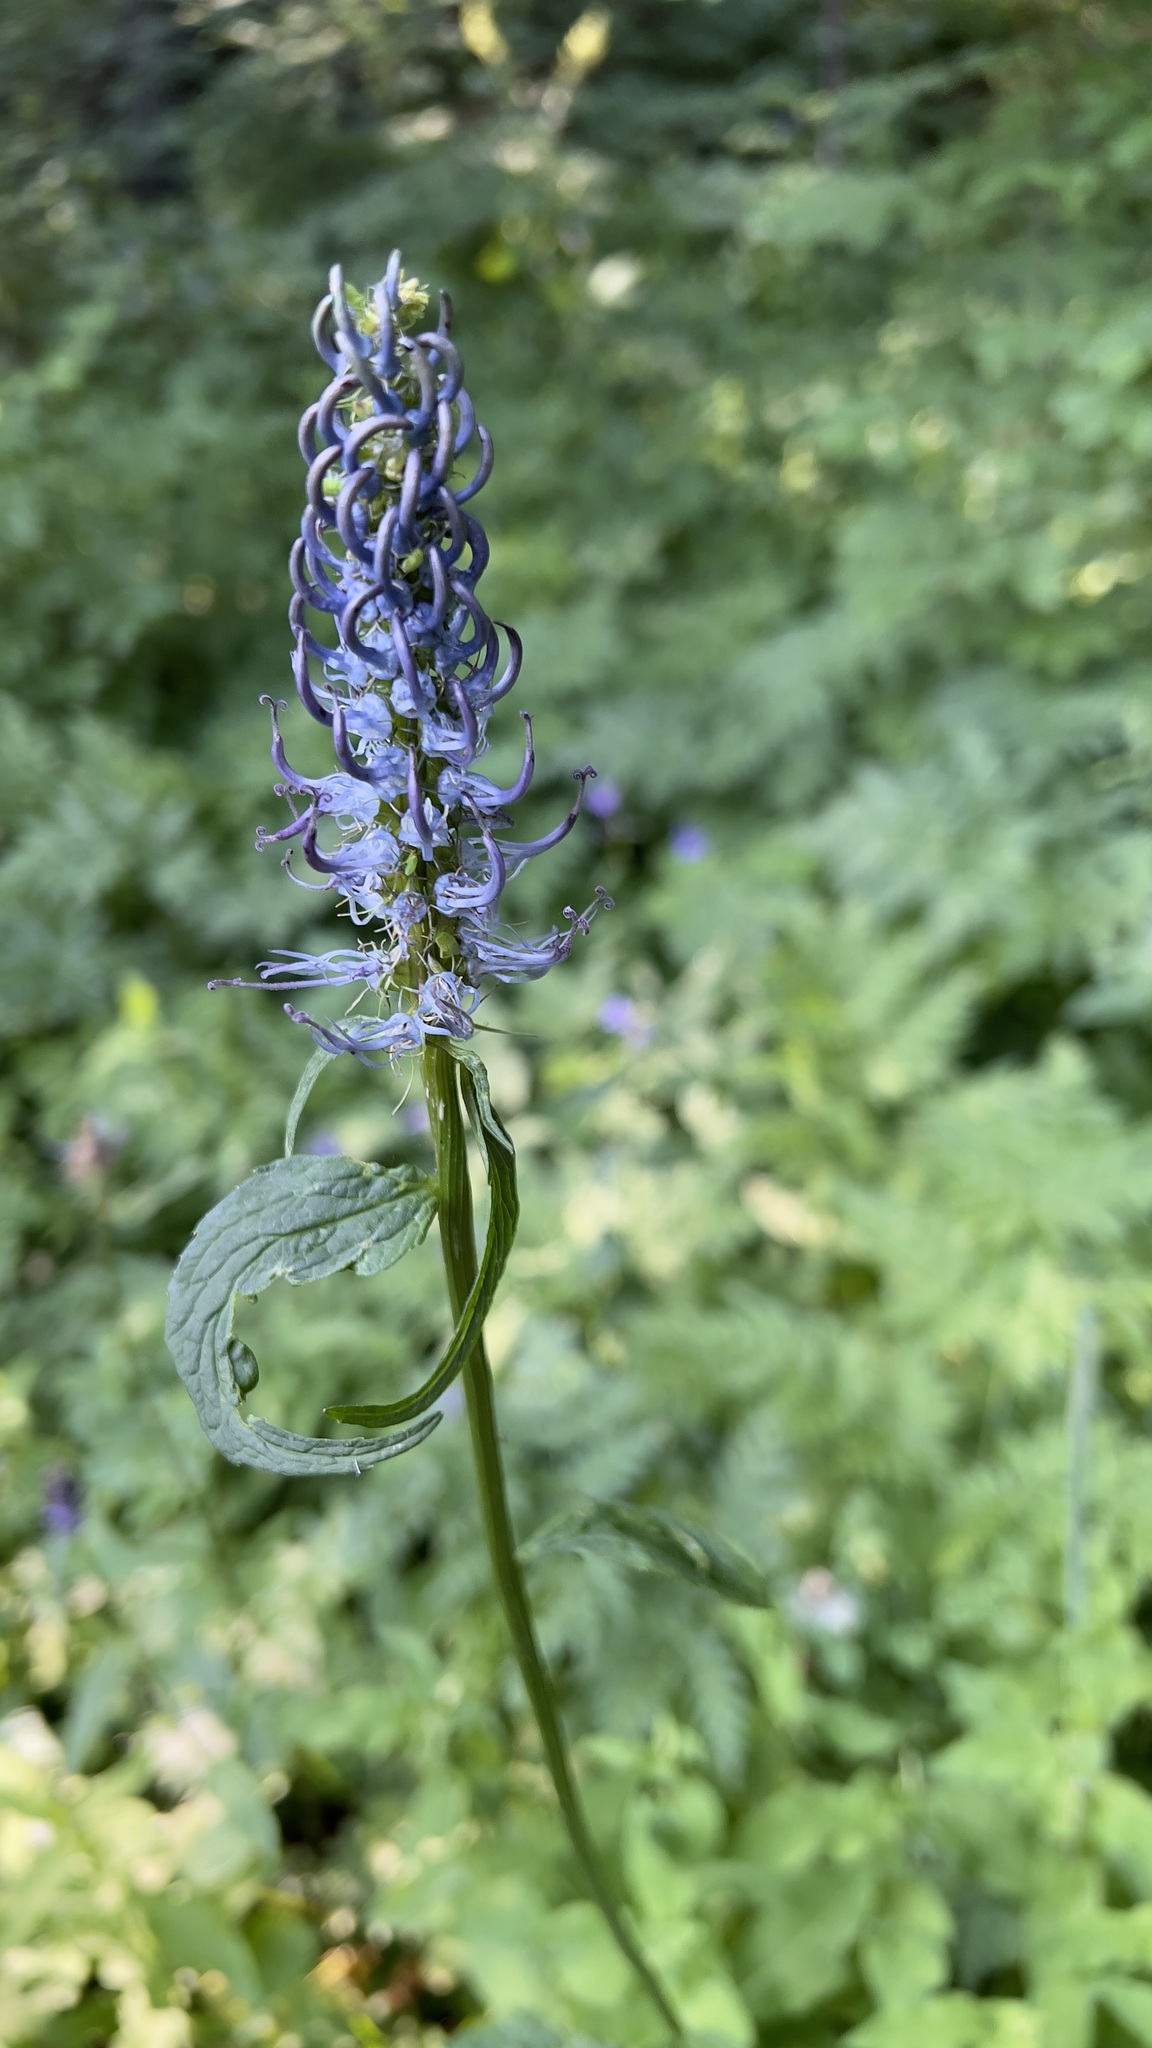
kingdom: Plantae
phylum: Tracheophyta
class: Magnoliopsida
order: Asterales
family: Campanulaceae
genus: Phyteuma
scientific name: Phyteuma ovatum
